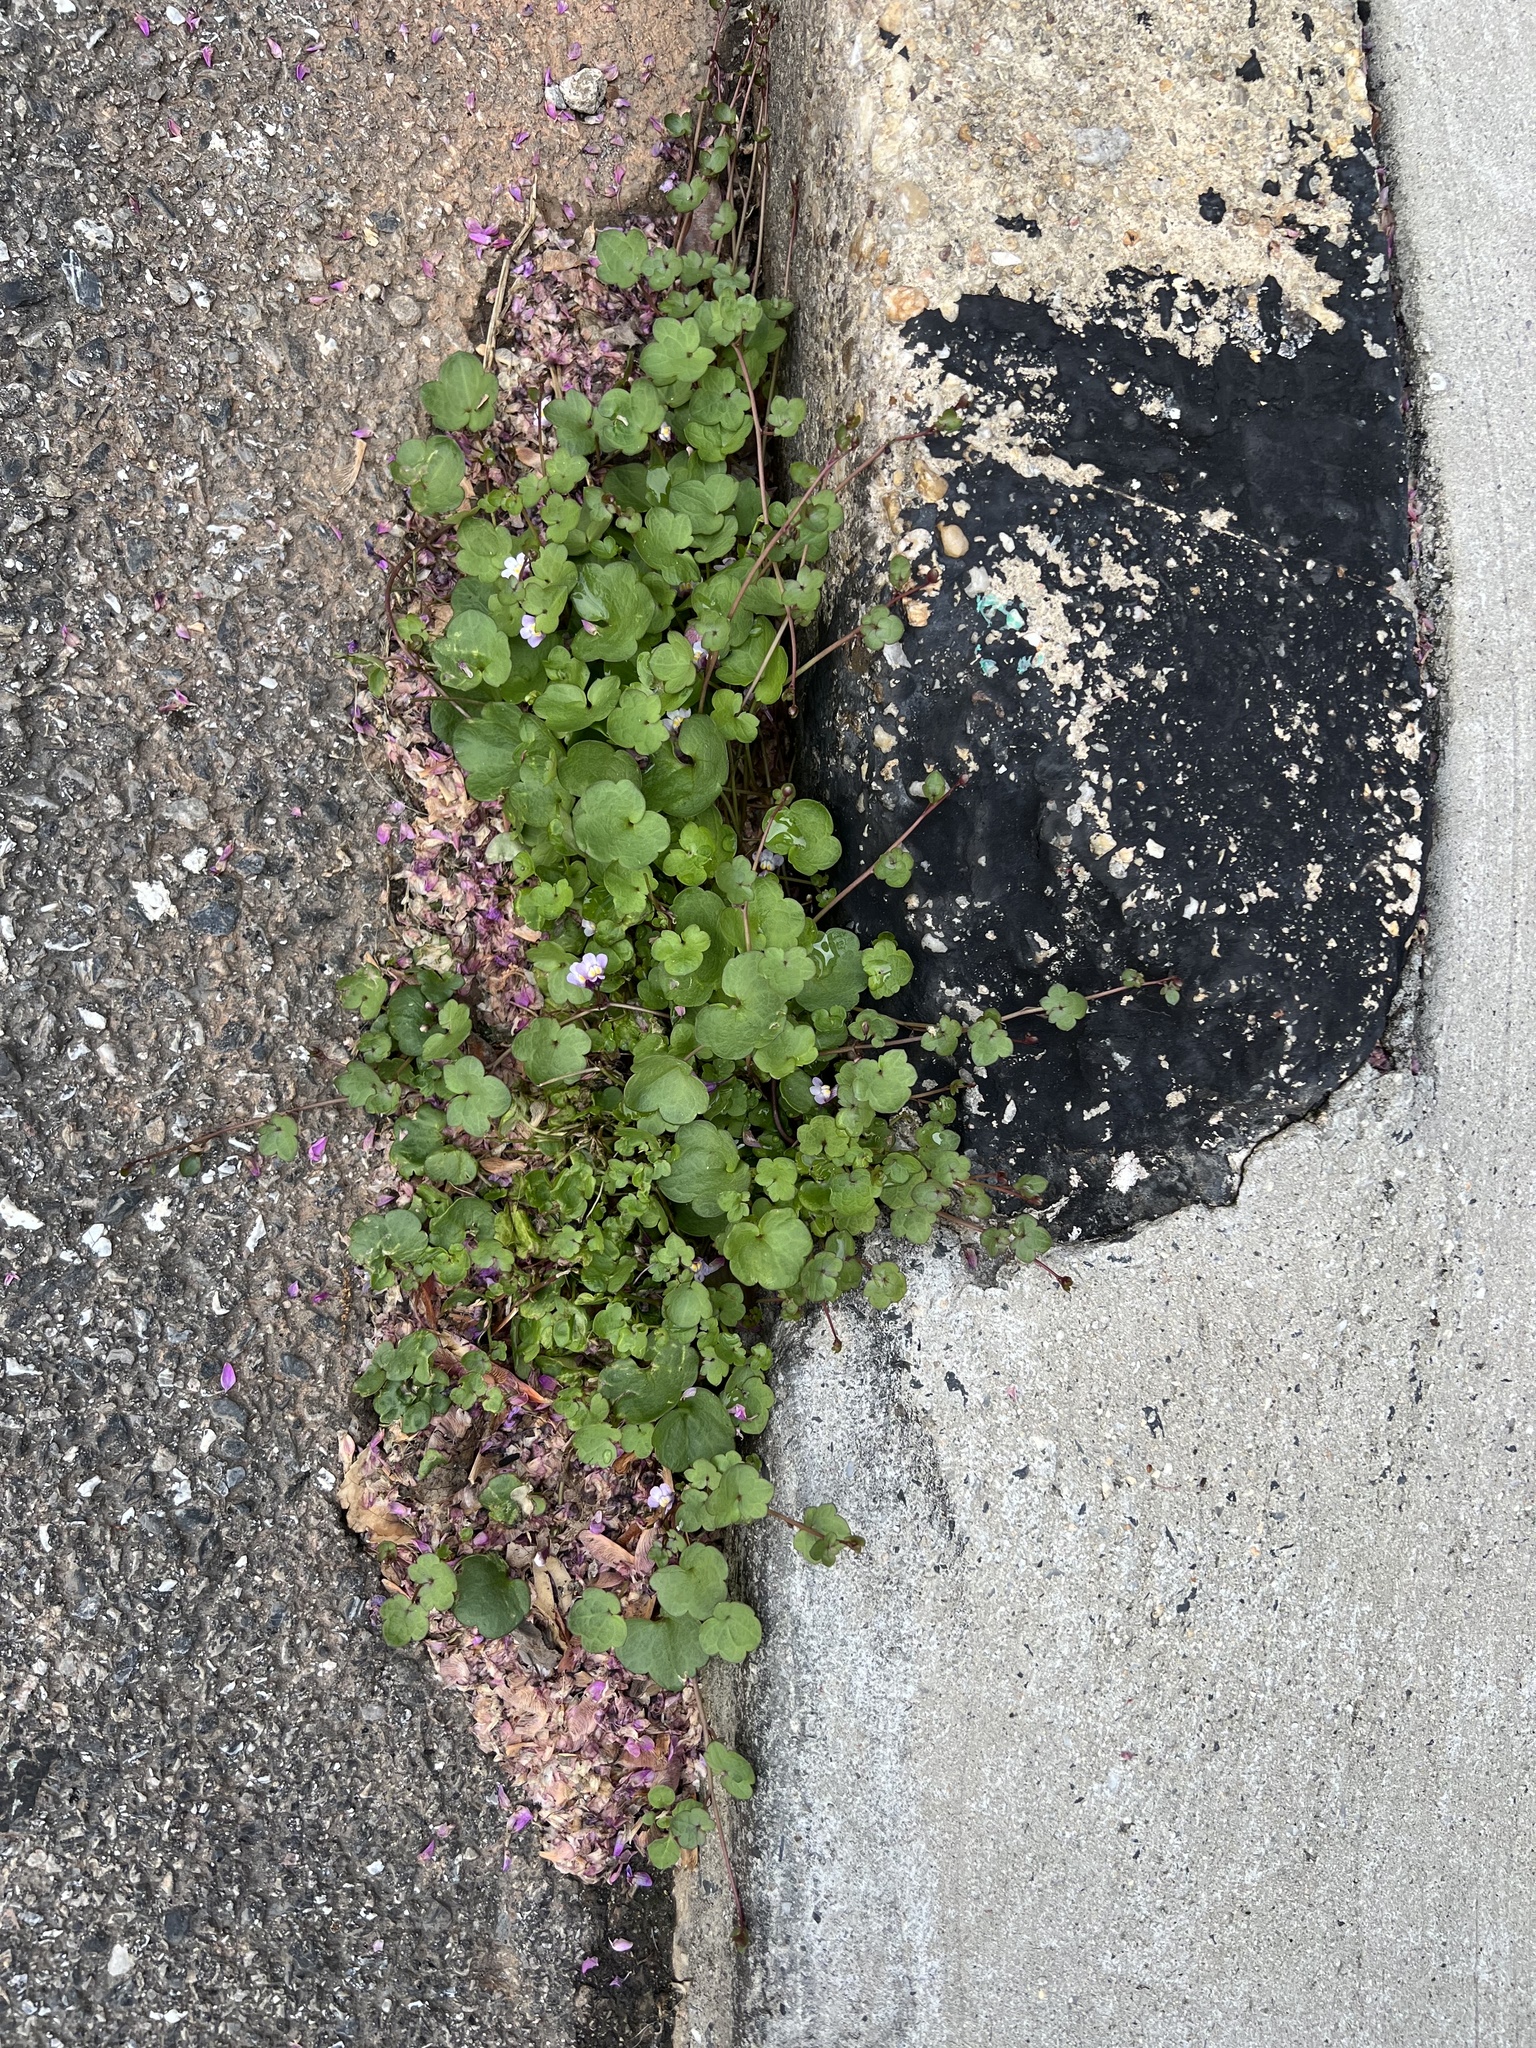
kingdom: Plantae
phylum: Tracheophyta
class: Magnoliopsida
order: Lamiales
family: Plantaginaceae
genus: Cymbalaria
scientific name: Cymbalaria muralis
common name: Ivy-leaved toadflax
